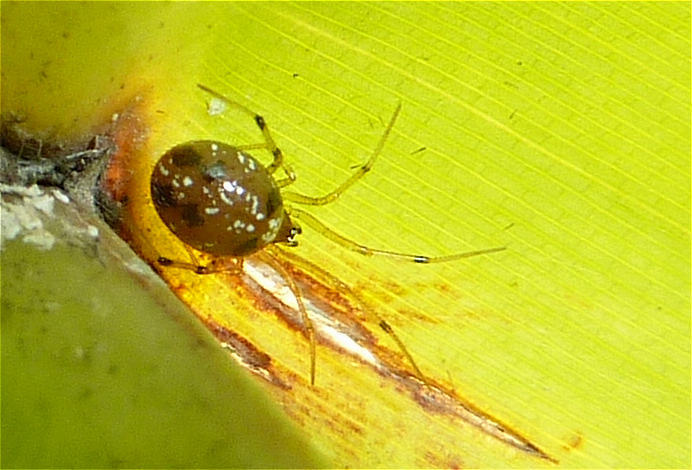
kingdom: Animalia
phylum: Arthropoda
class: Arachnida
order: Araneae
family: Theridiidae
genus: Coleosoma
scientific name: Coleosoma floridanum
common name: Spider
